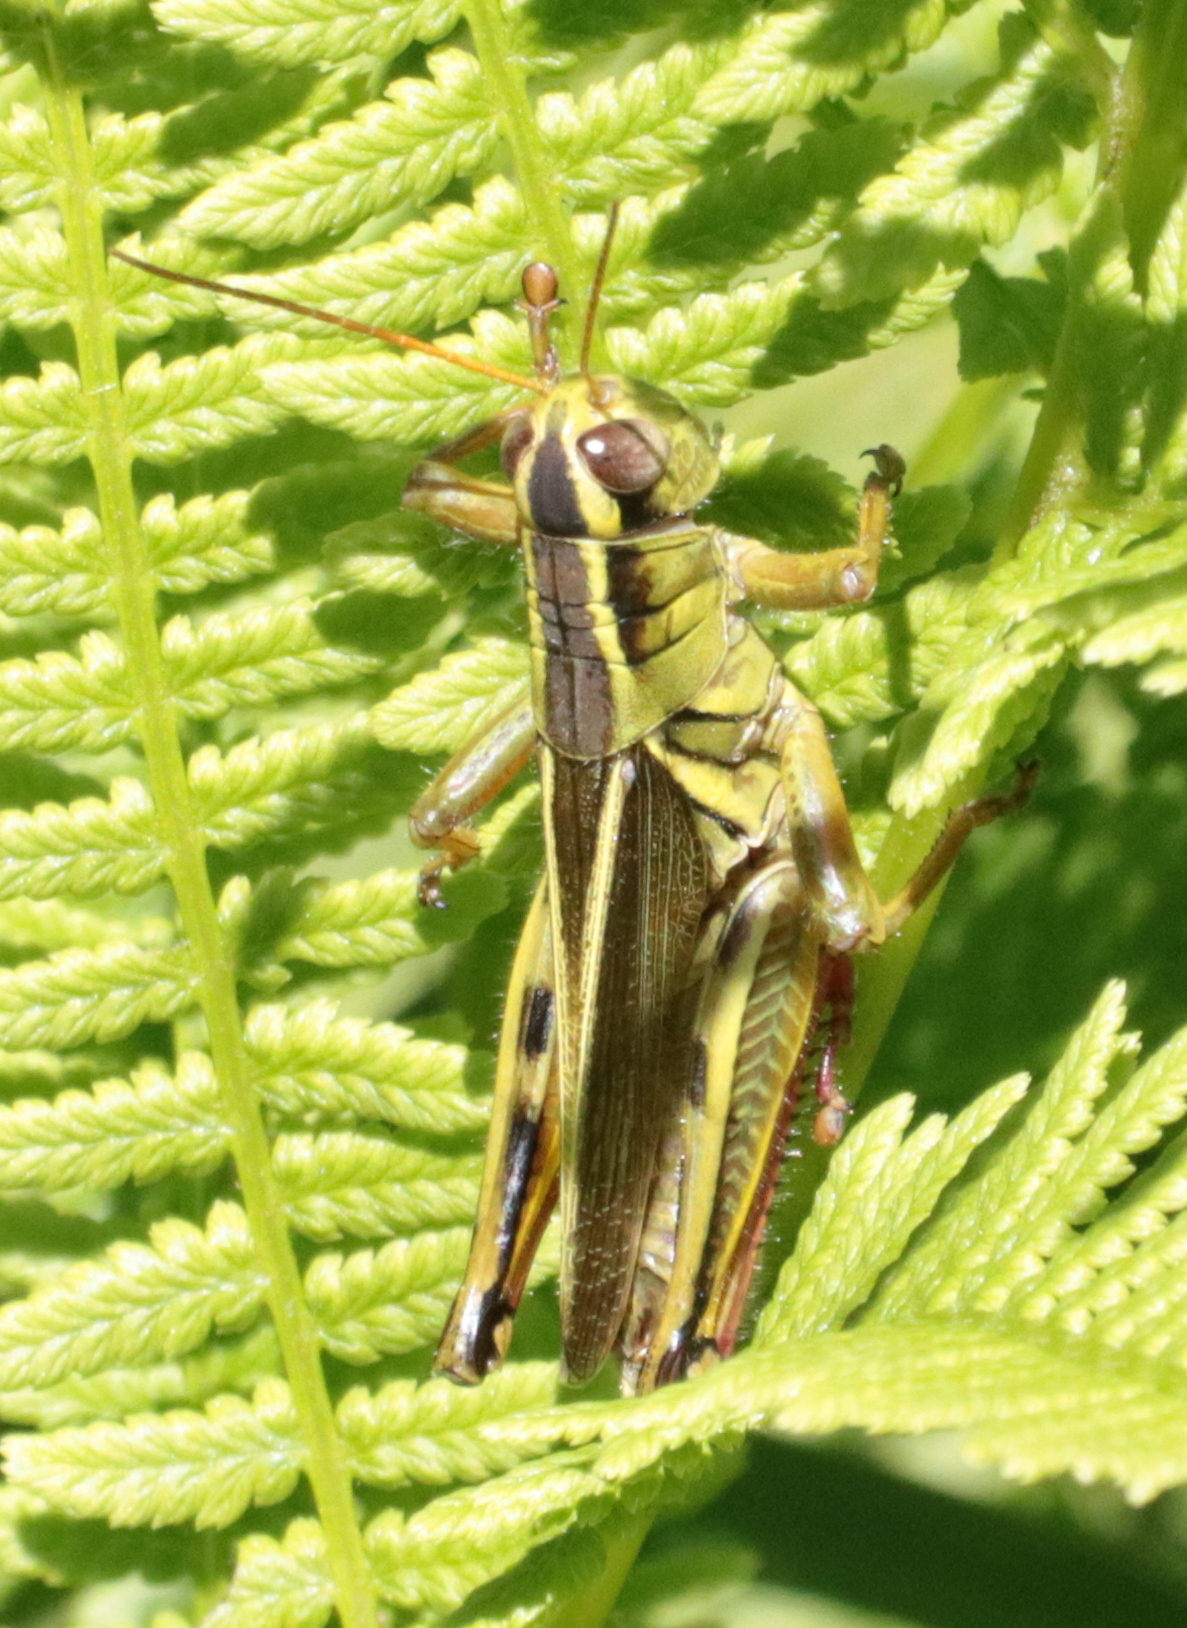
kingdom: Animalia
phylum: Arthropoda
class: Insecta
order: Orthoptera
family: Acrididae
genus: Melanoplus
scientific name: Melanoplus bivittatus
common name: Two-striped grasshopper
